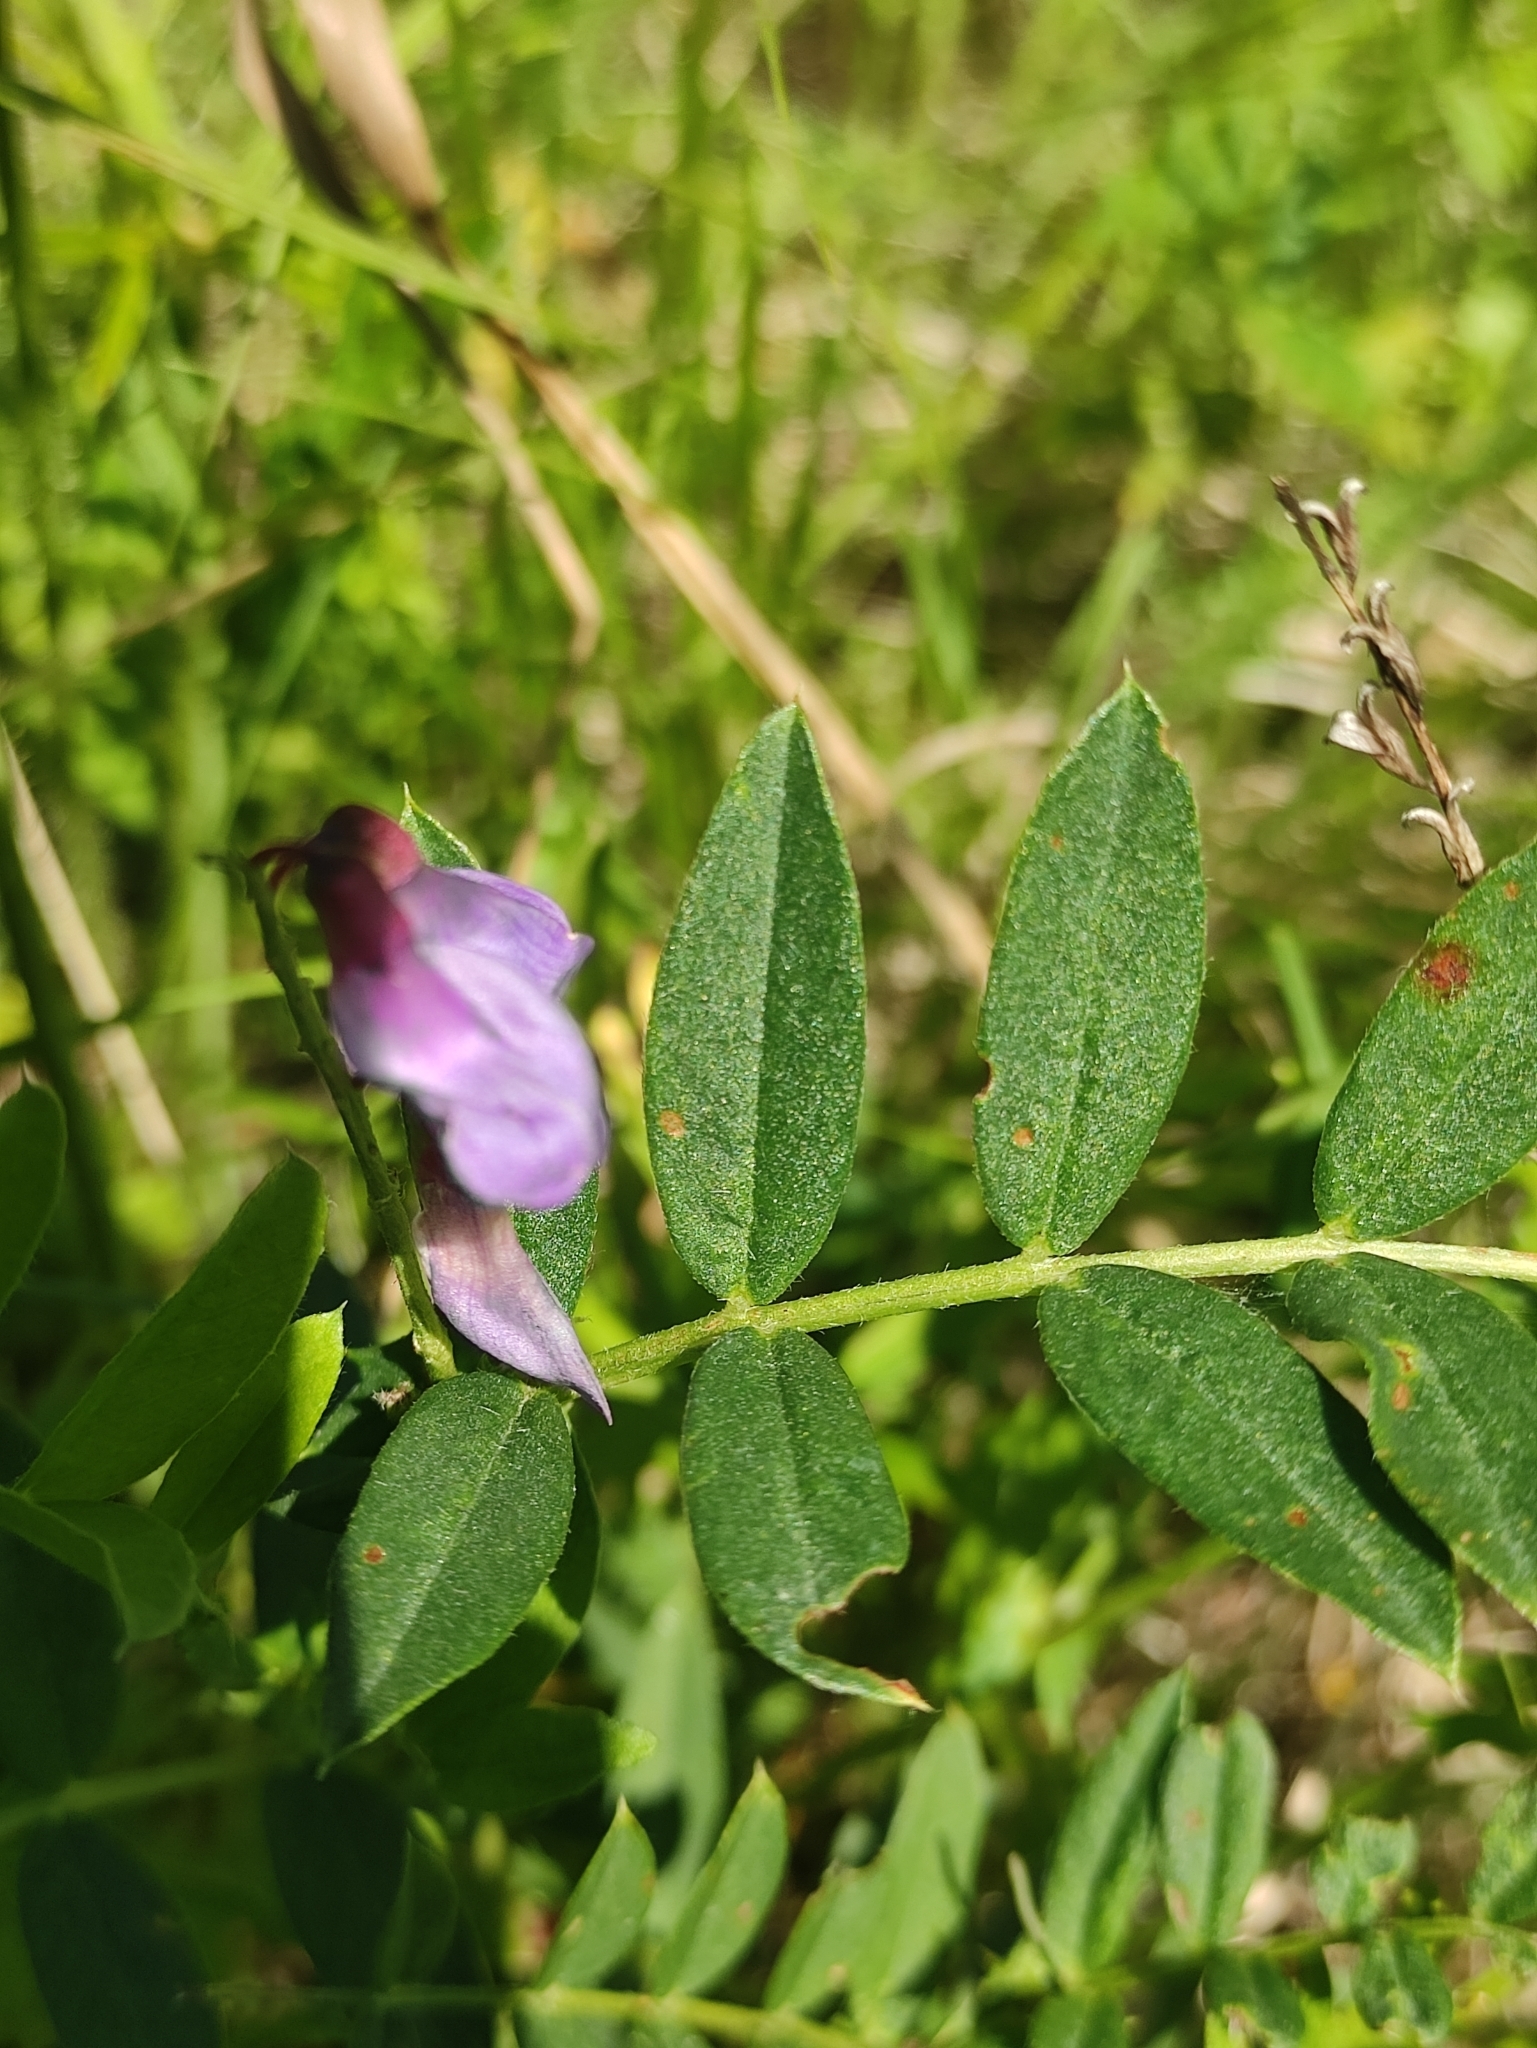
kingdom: Plantae
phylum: Tracheophyta
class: Magnoliopsida
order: Fabales
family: Fabaceae
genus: Vicia
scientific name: Vicia amoena
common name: Cheder ebs
